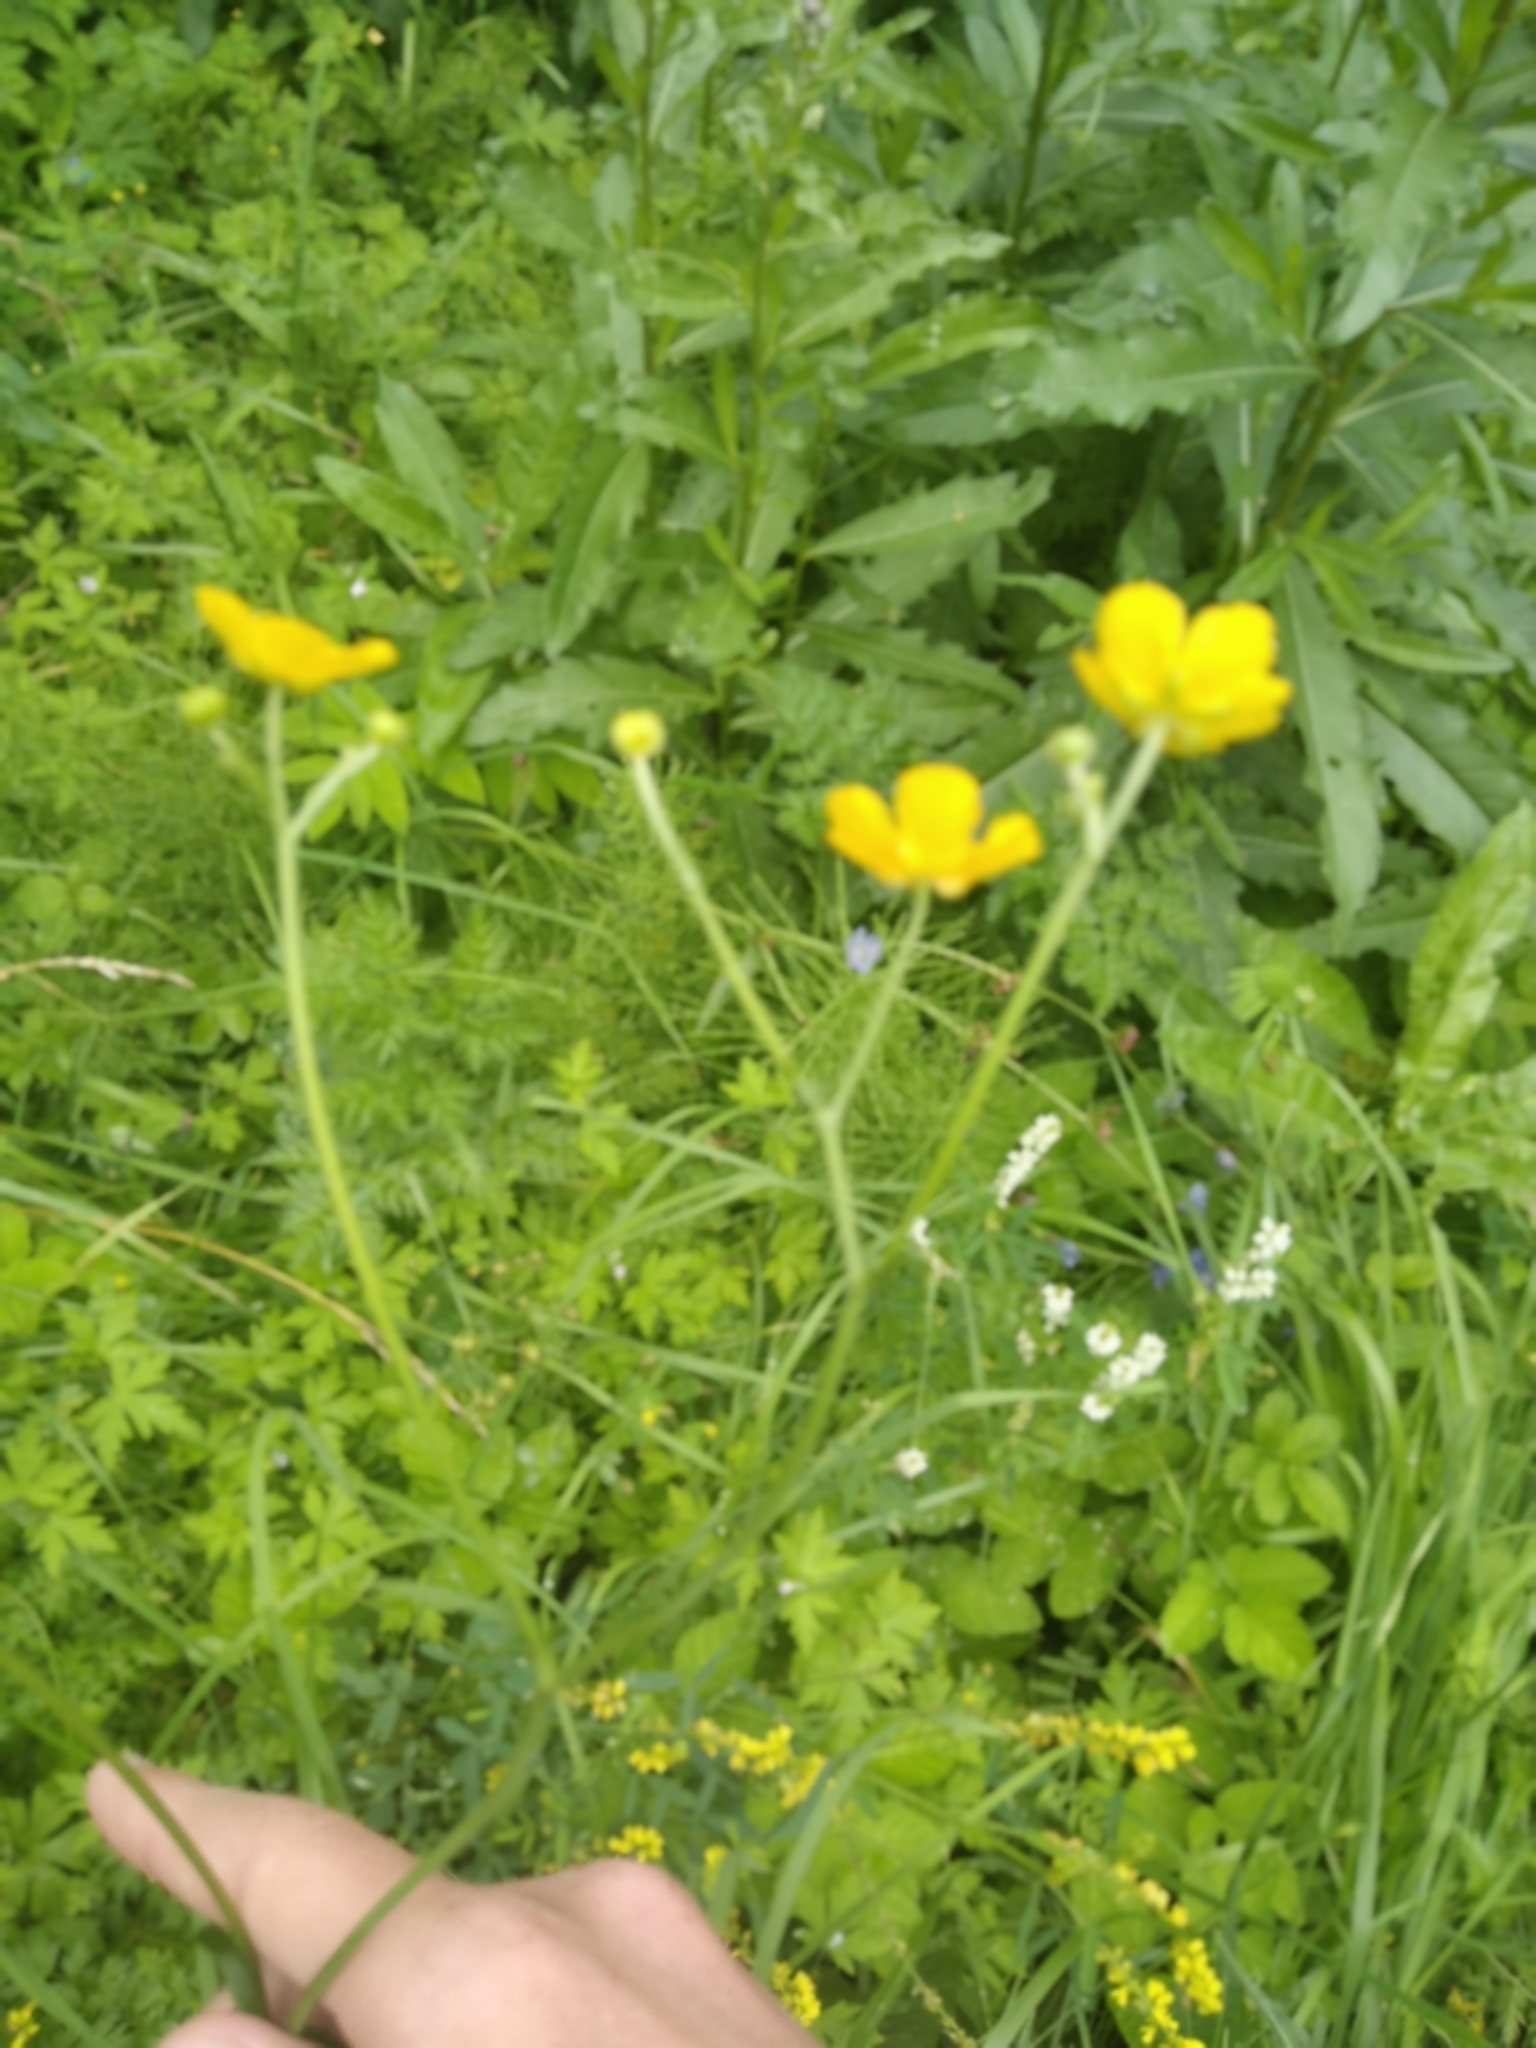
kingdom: Plantae
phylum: Tracheophyta
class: Magnoliopsida
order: Ranunculales
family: Ranunculaceae
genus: Ranunculus
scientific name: Ranunculus acris
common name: Meadow buttercup
